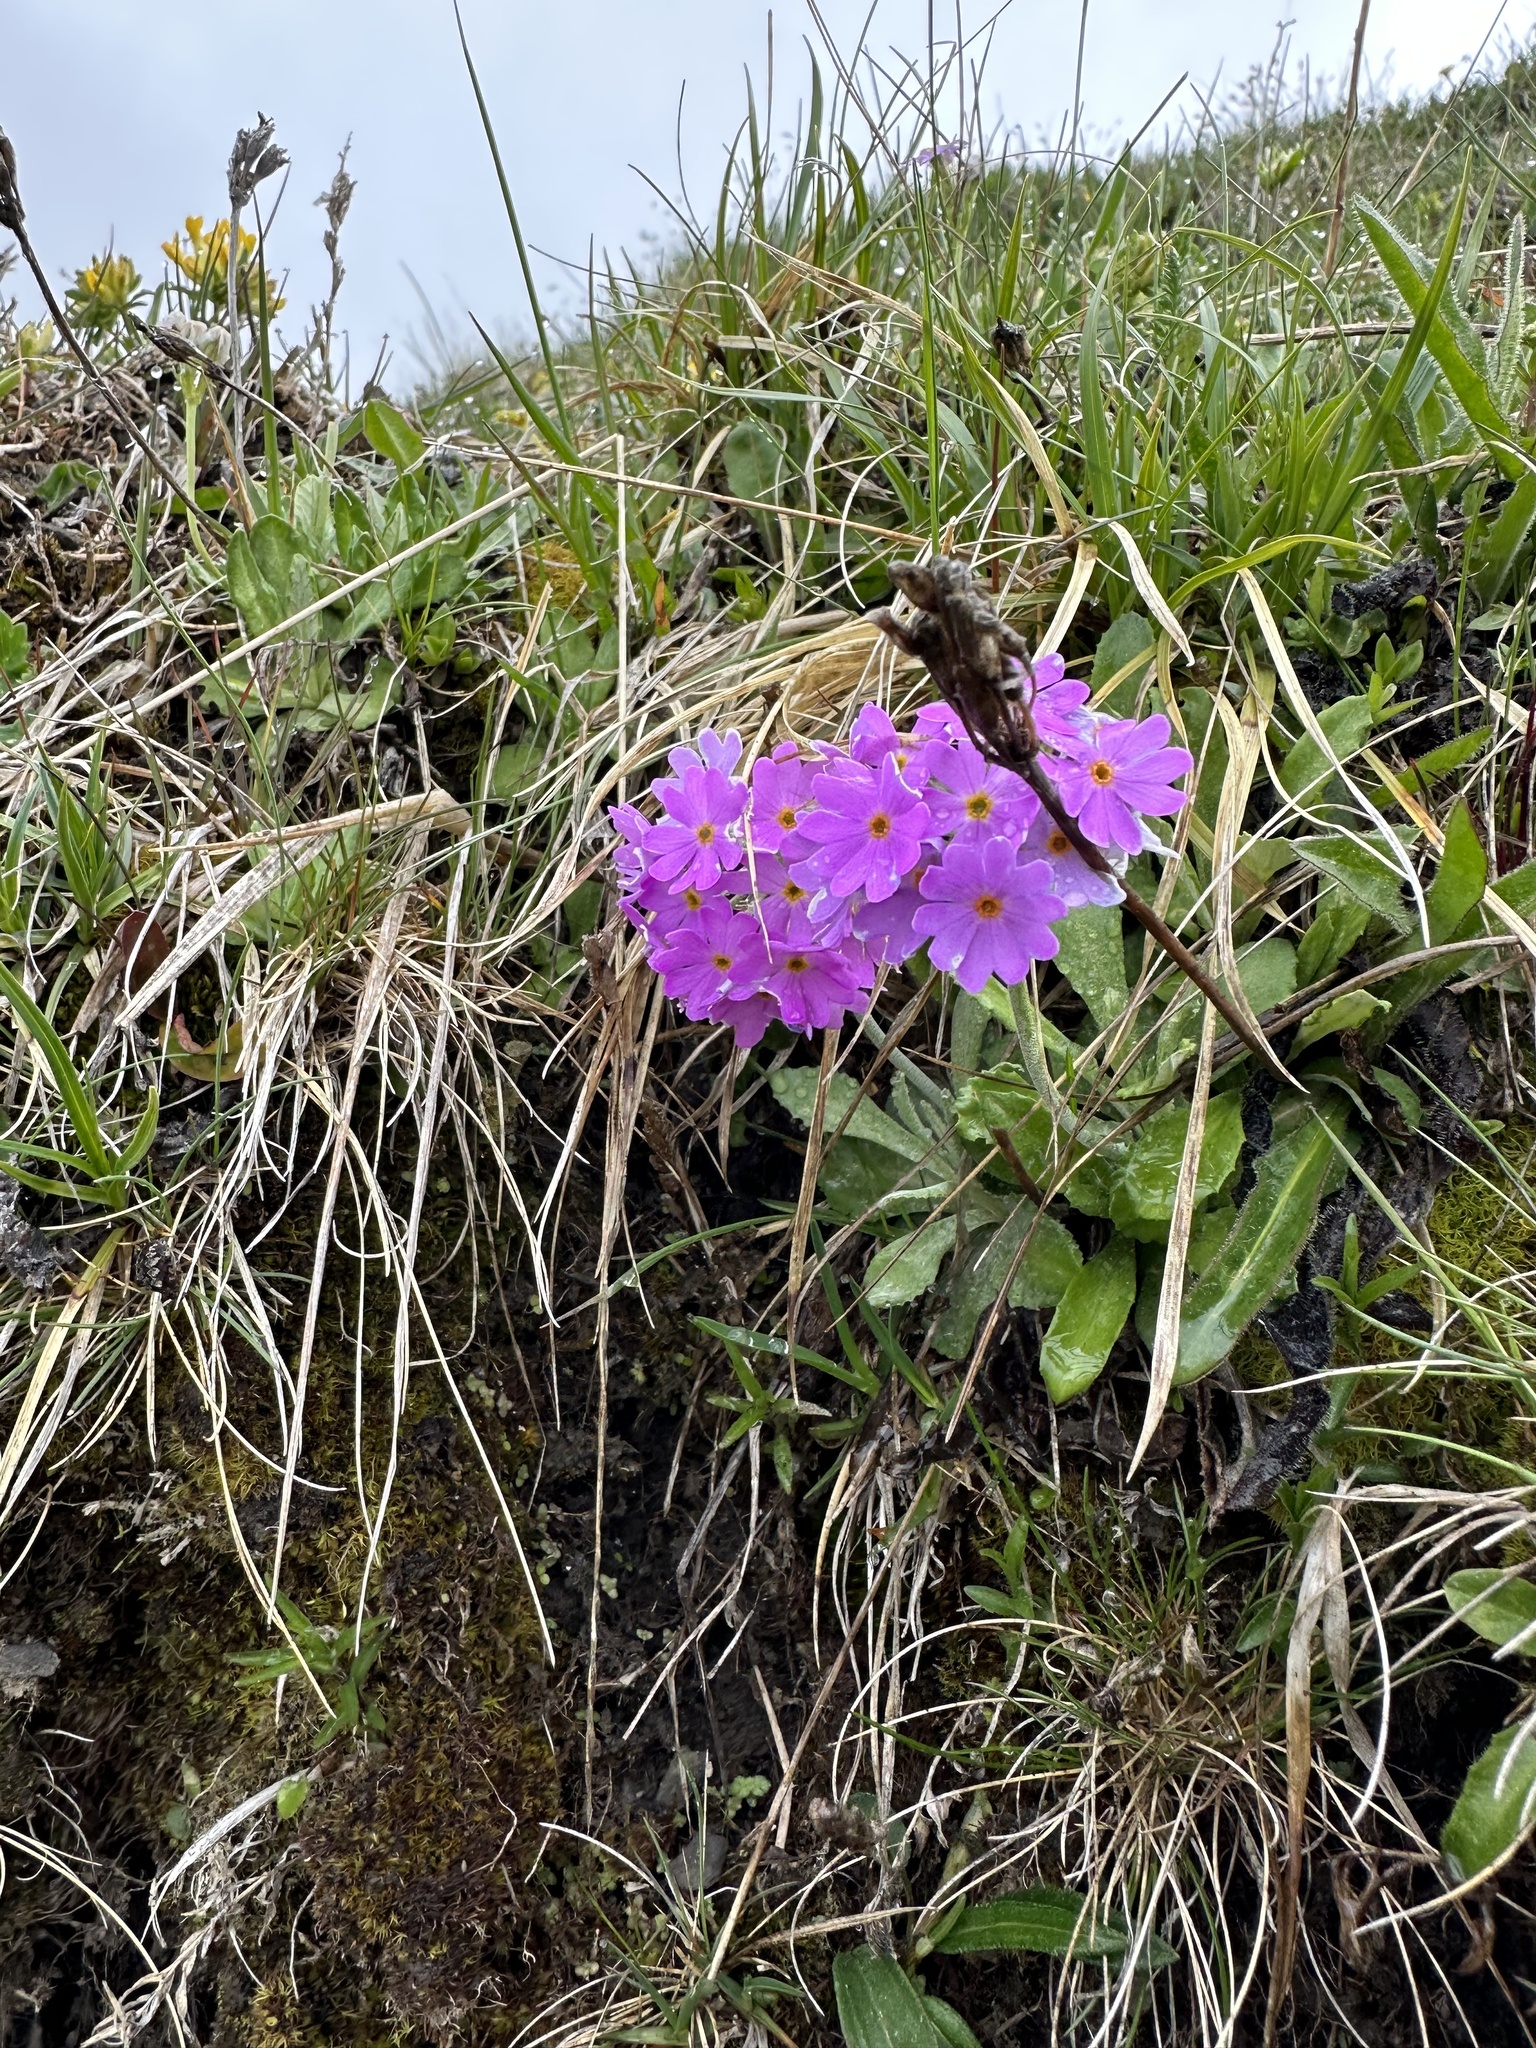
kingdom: Plantae
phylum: Tracheophyta
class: Magnoliopsida
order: Ericales
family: Primulaceae
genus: Primula
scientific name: Primula farinosa
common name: Bird's-eye primrose
